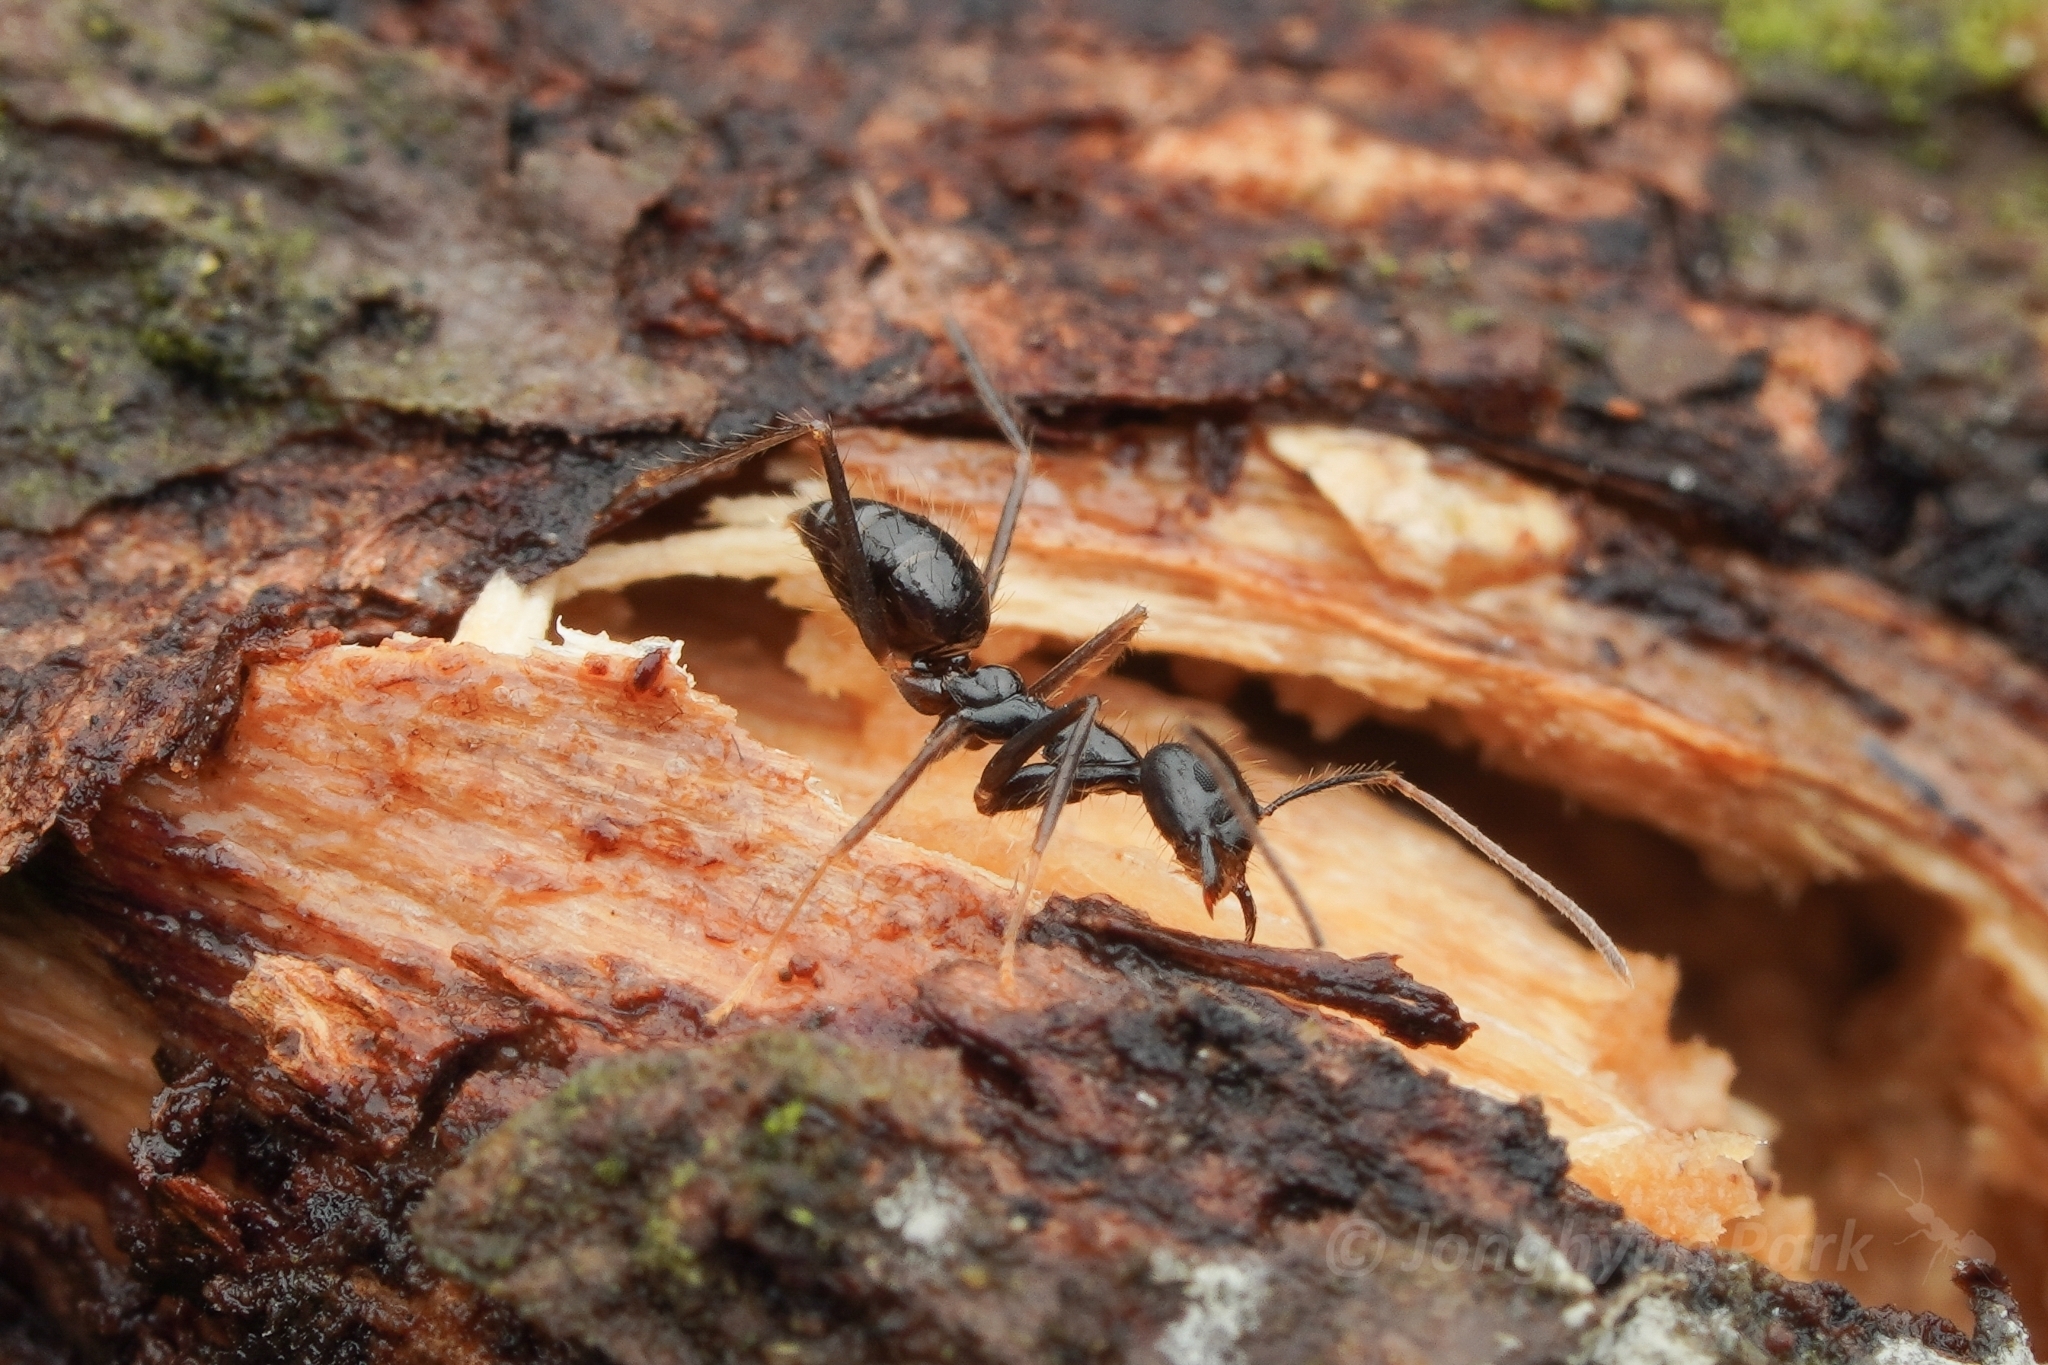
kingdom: Animalia
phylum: Arthropoda
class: Insecta
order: Hymenoptera
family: Formicidae
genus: Euprenolepis
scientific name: Euprenolepis procera
